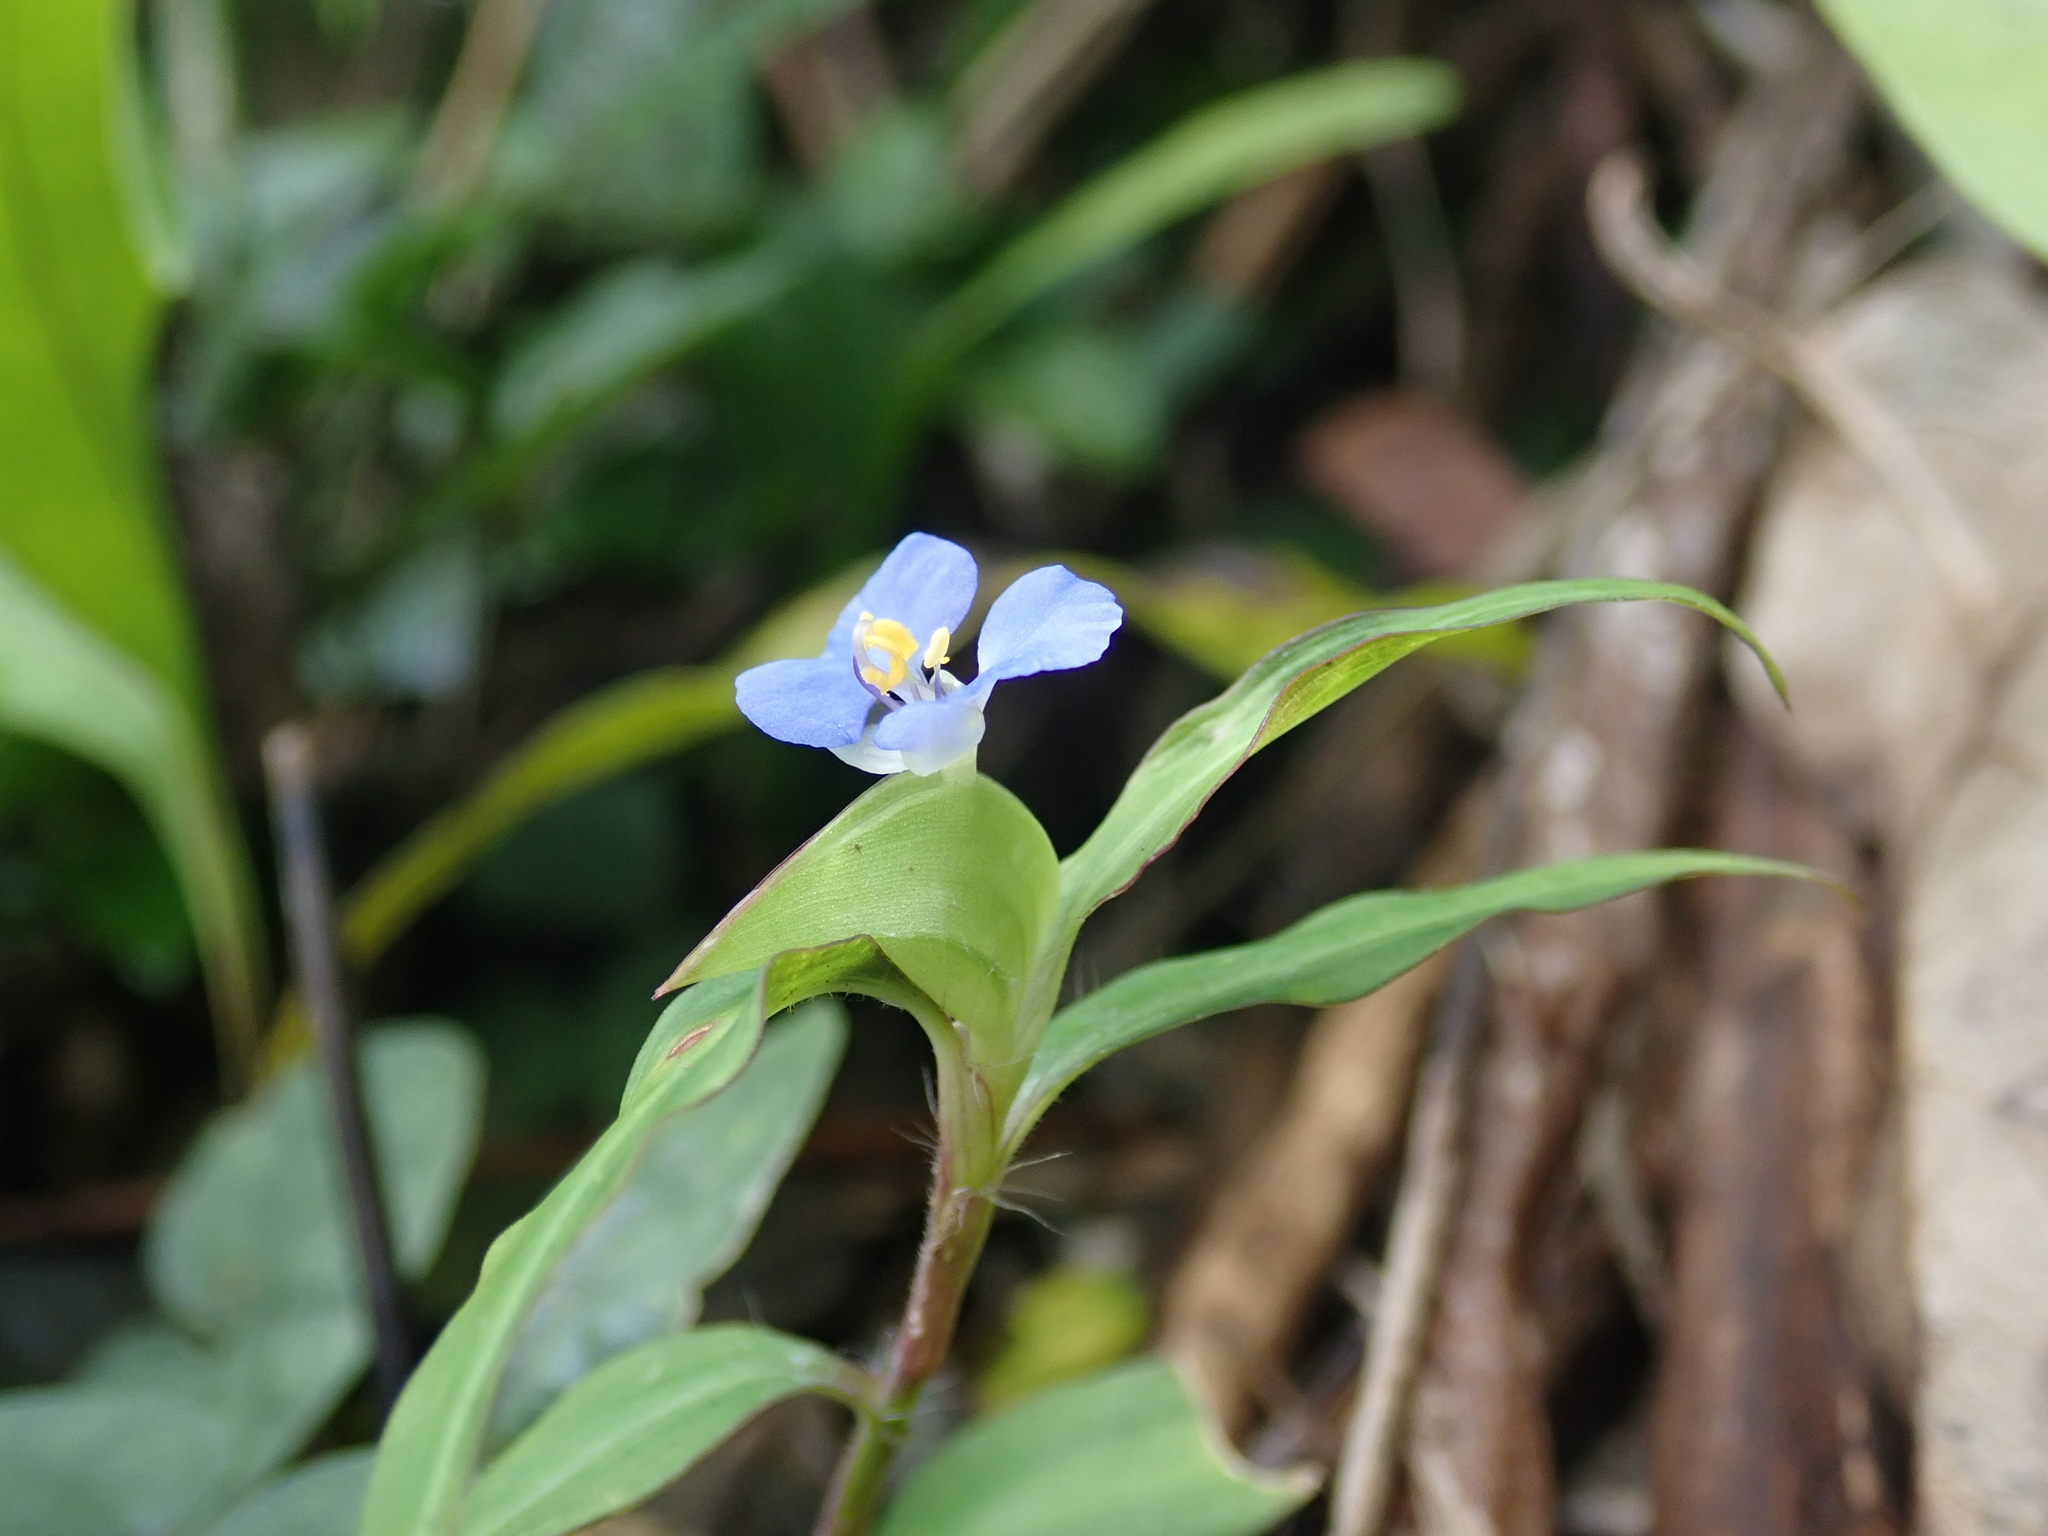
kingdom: Plantae
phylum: Tracheophyta
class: Liliopsida
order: Commelinales
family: Commelinaceae
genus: Commelina
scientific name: Commelina auriculata
